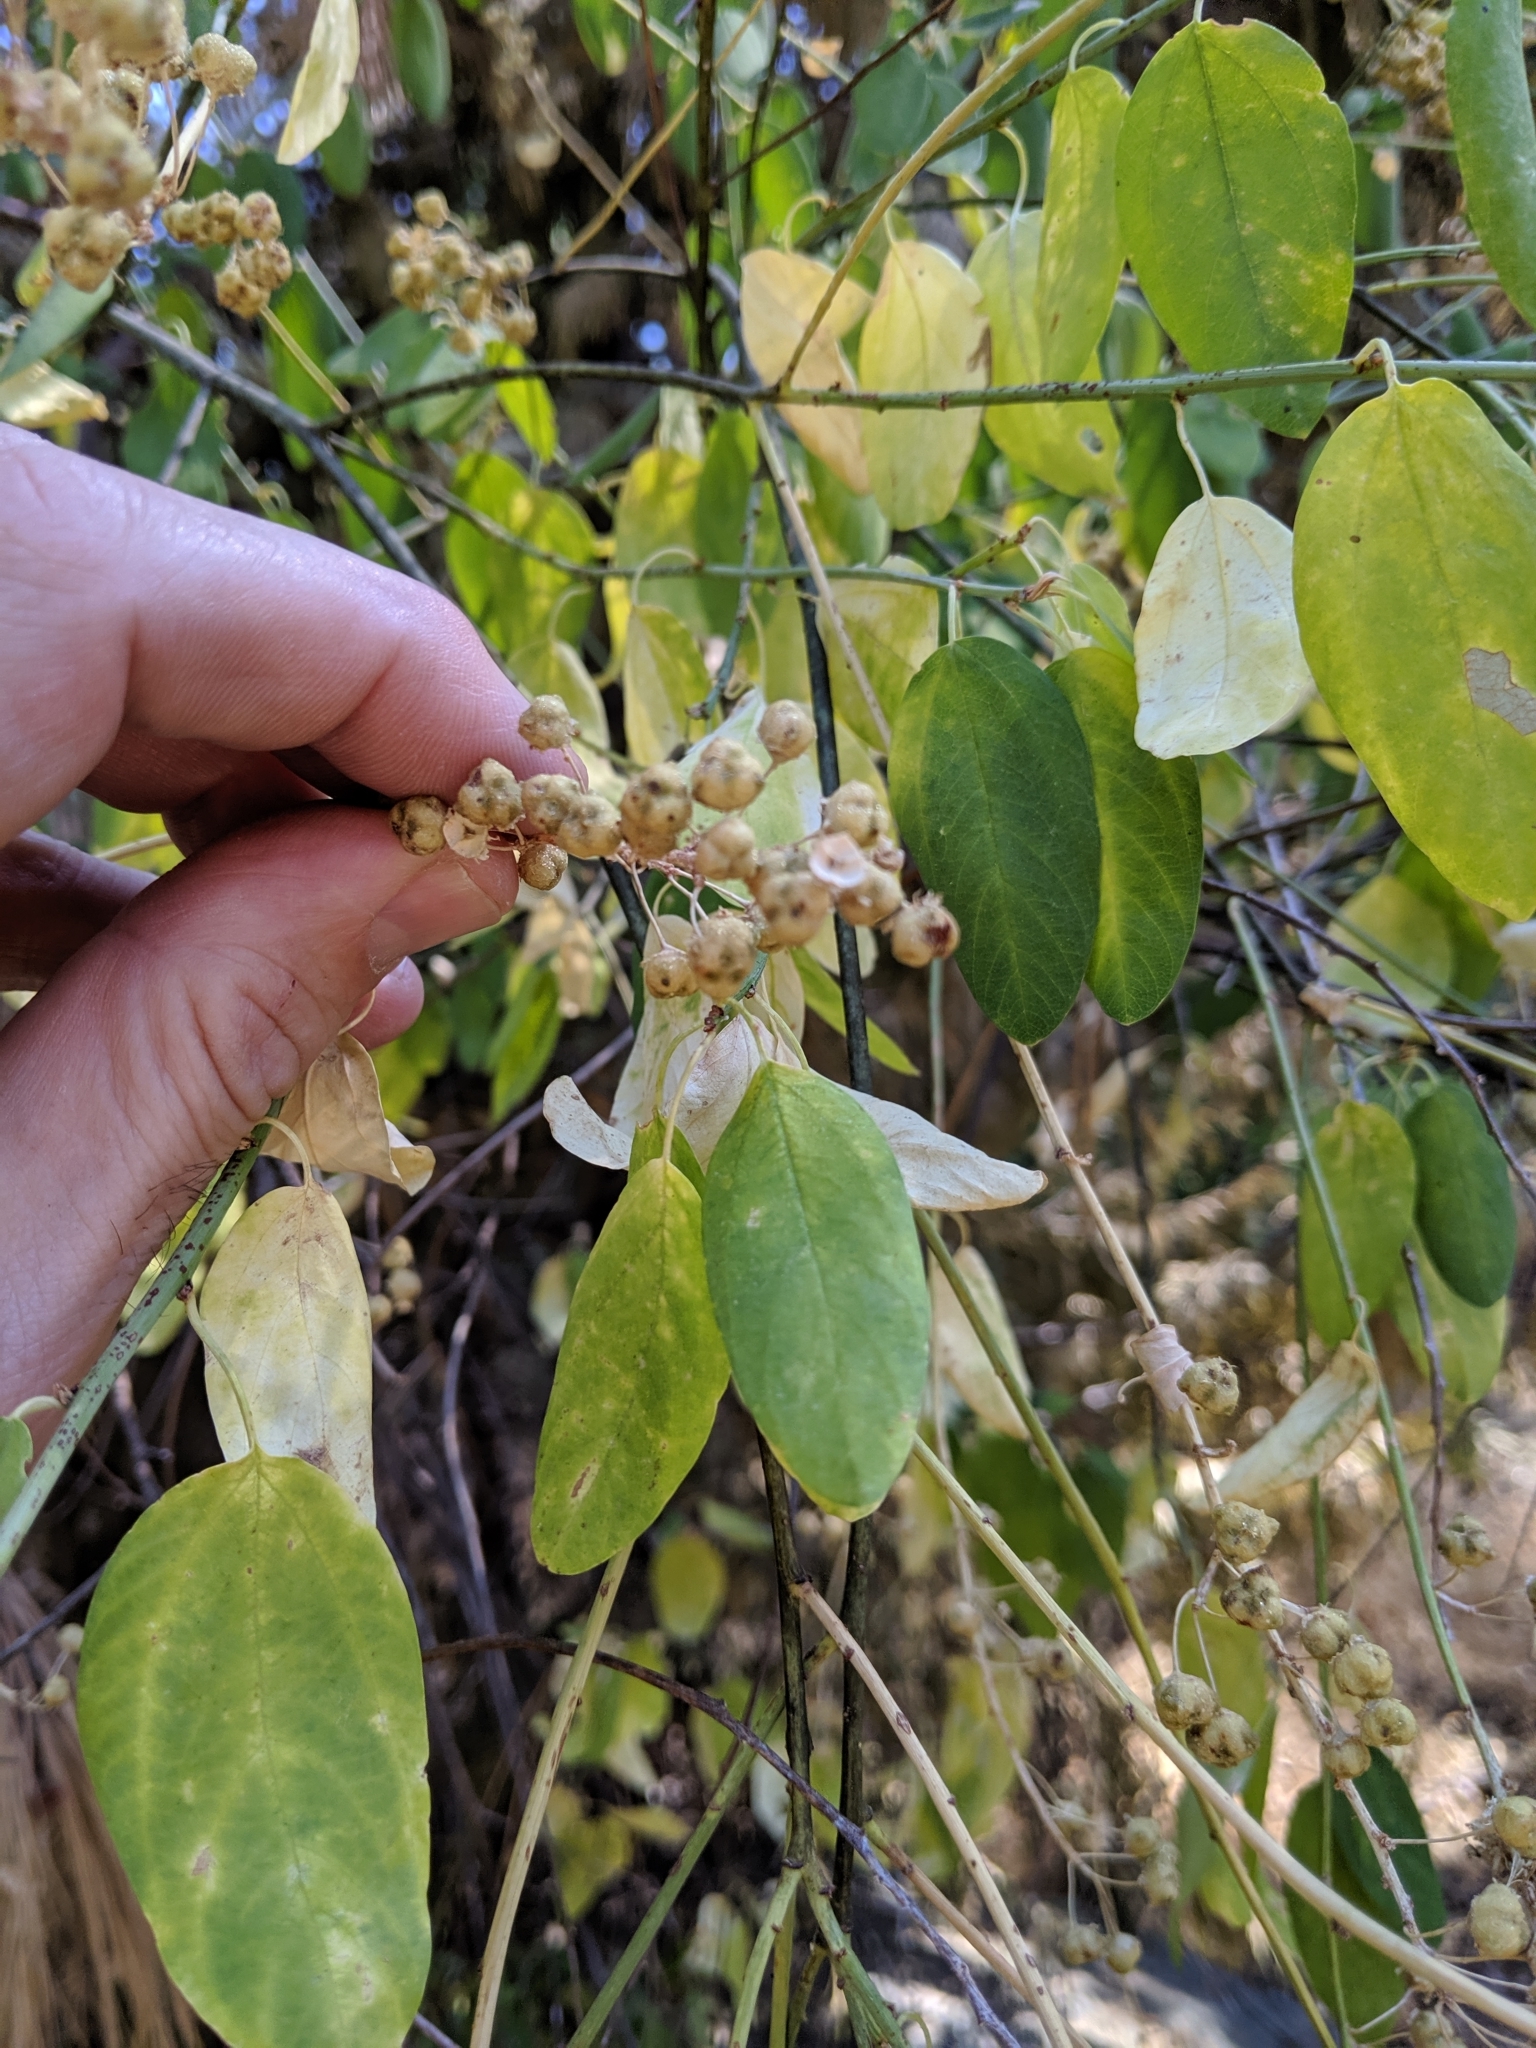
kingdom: Plantae
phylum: Tracheophyta
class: Magnoliopsida
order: Rosales
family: Rhamnaceae
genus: Ceanothus
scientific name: Ceanothus integerrimus
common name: Deerbrush ceanothus
